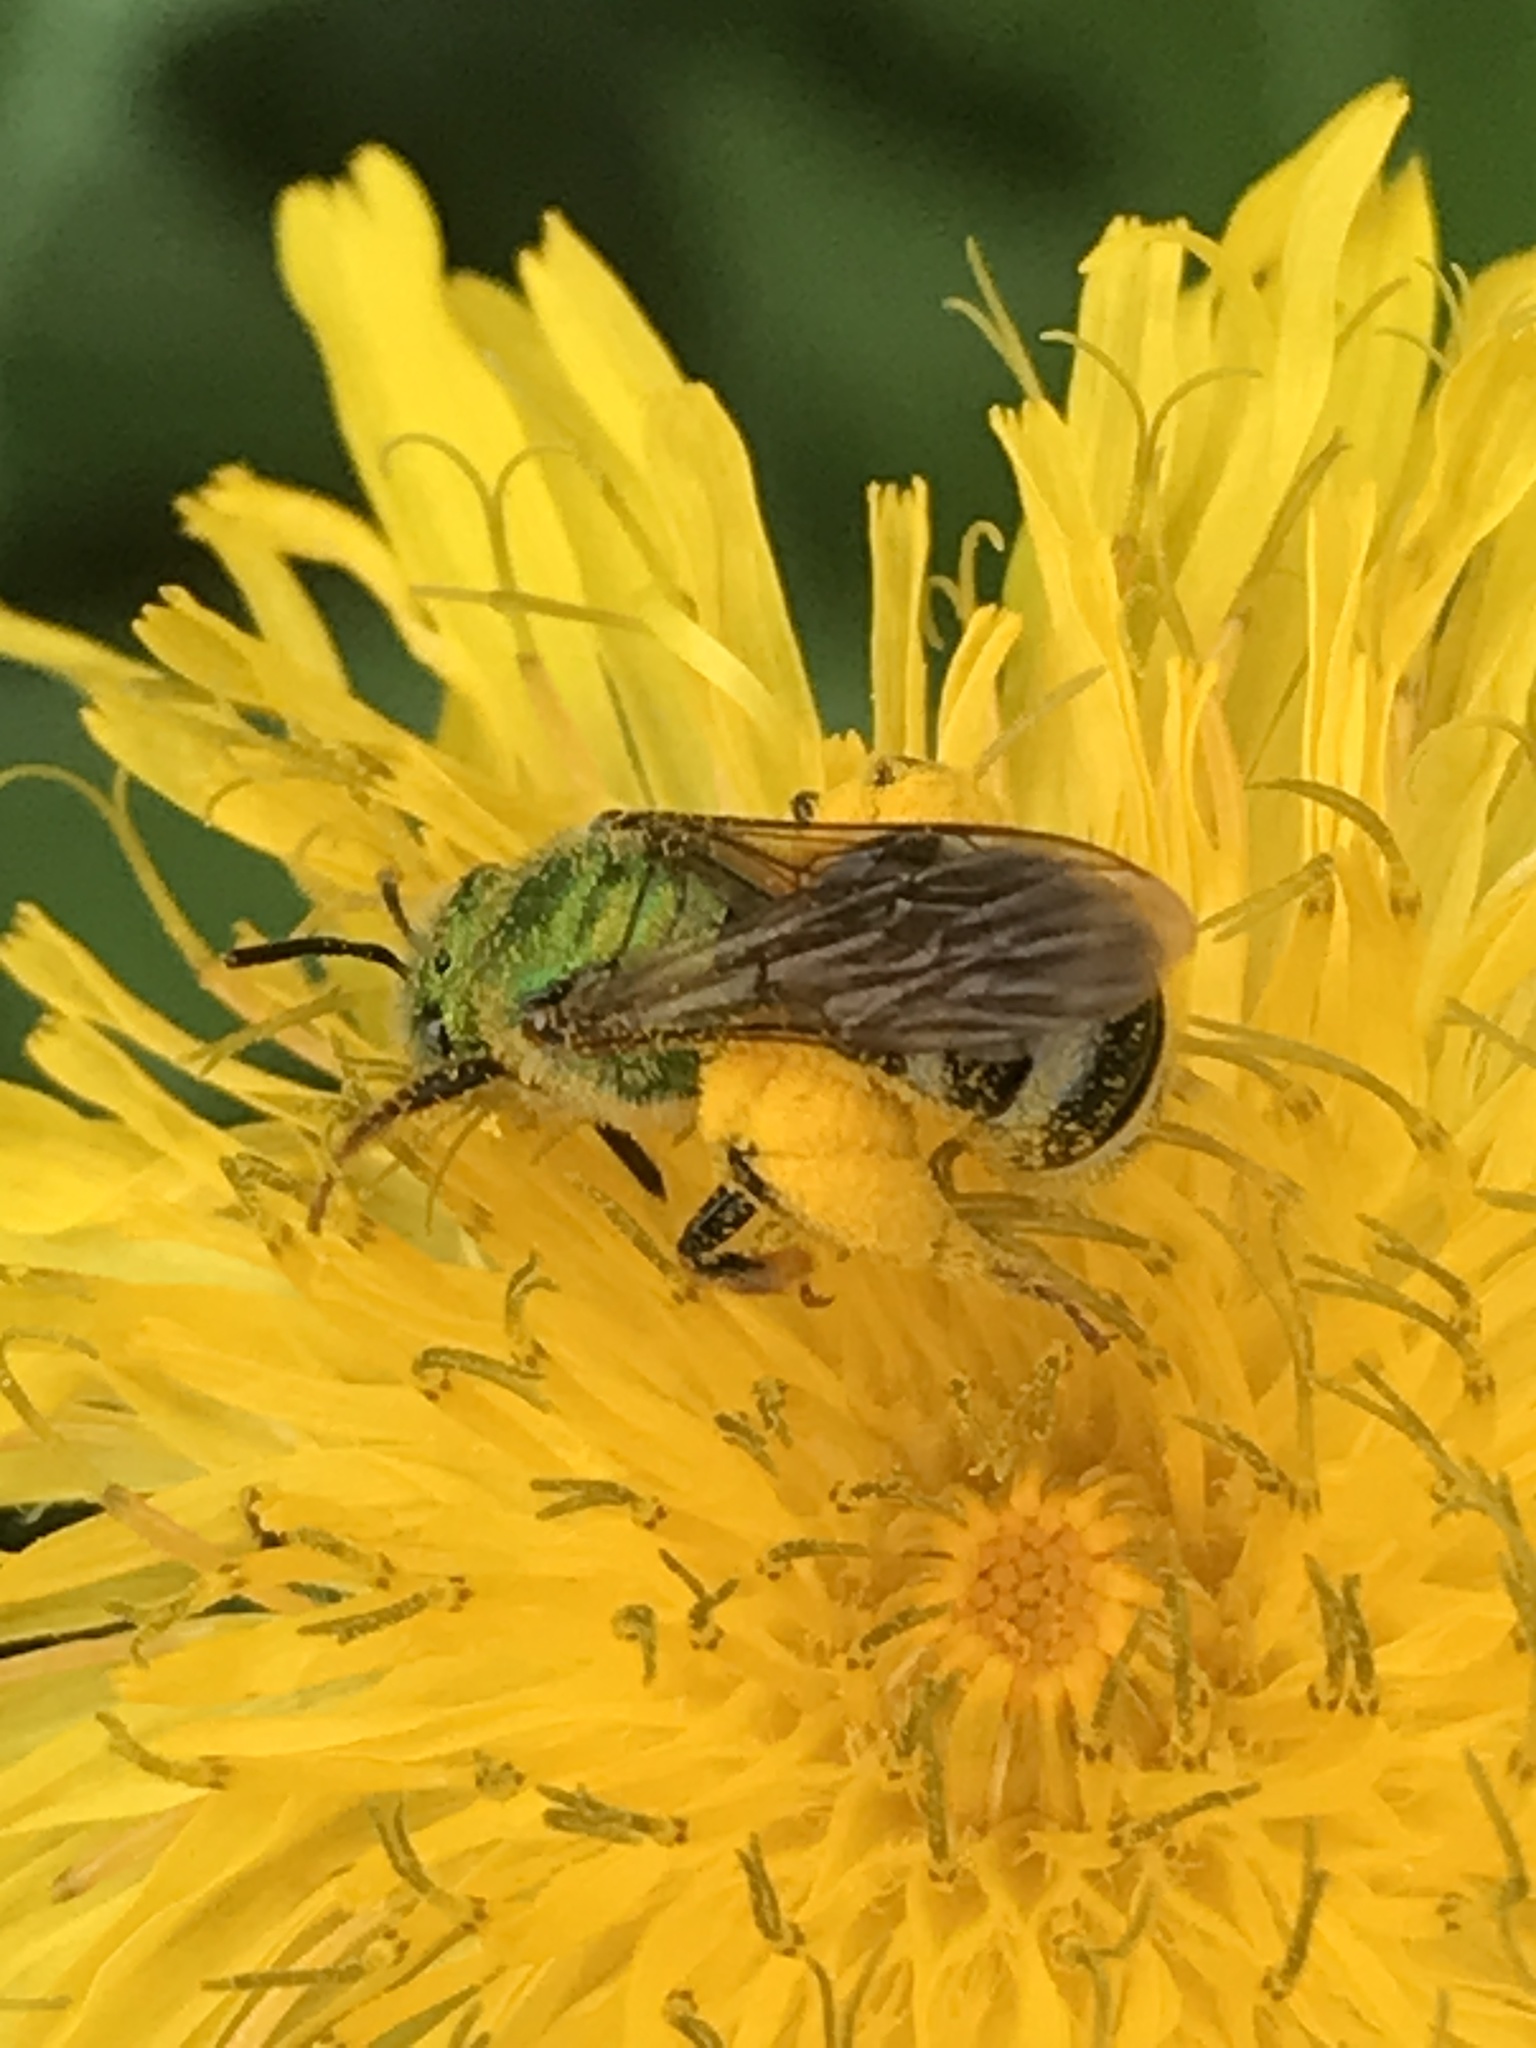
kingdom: Animalia
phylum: Arthropoda
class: Insecta
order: Hymenoptera
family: Halictidae
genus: Agapostemon
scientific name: Agapostemon virescens
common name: Bicolored striped sweat bee
